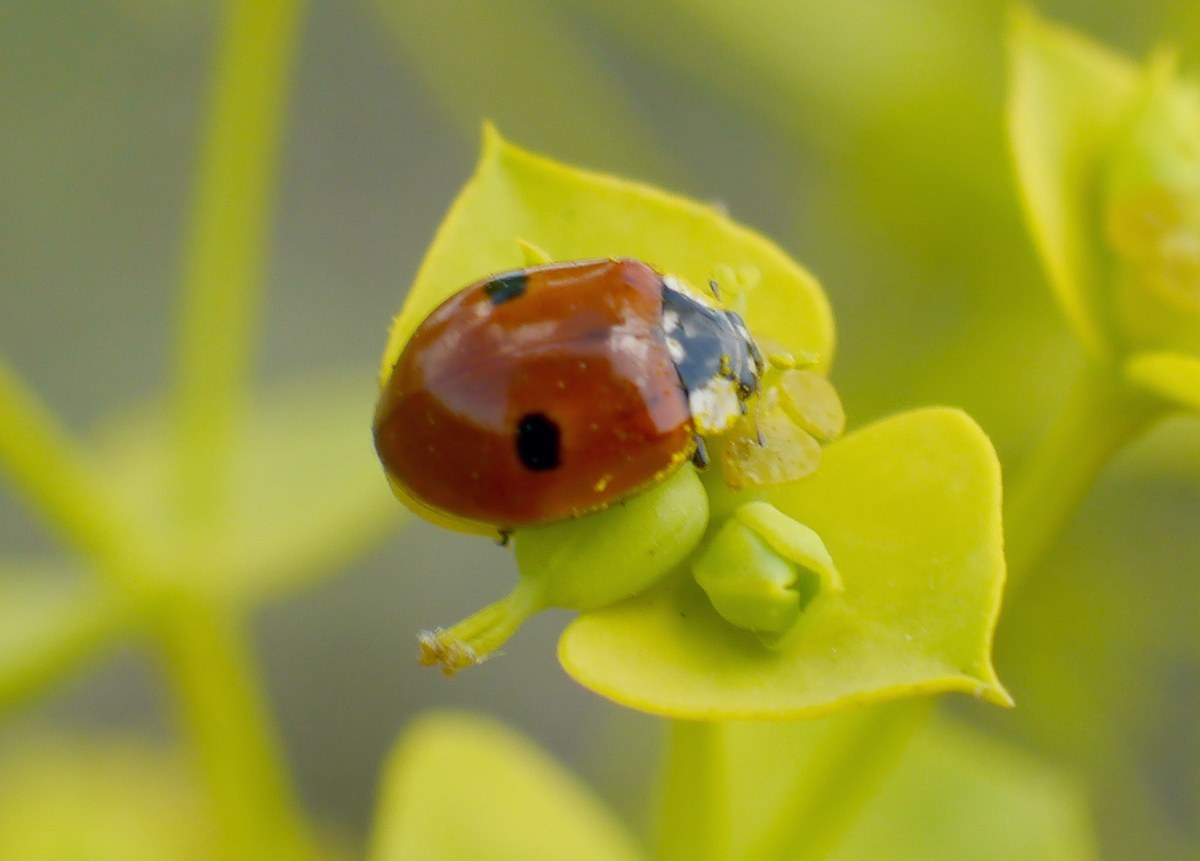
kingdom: Animalia
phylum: Arthropoda
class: Insecta
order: Coleoptera
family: Coccinellidae
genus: Adalia
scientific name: Adalia bipunctata
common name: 2-spot ladybird
